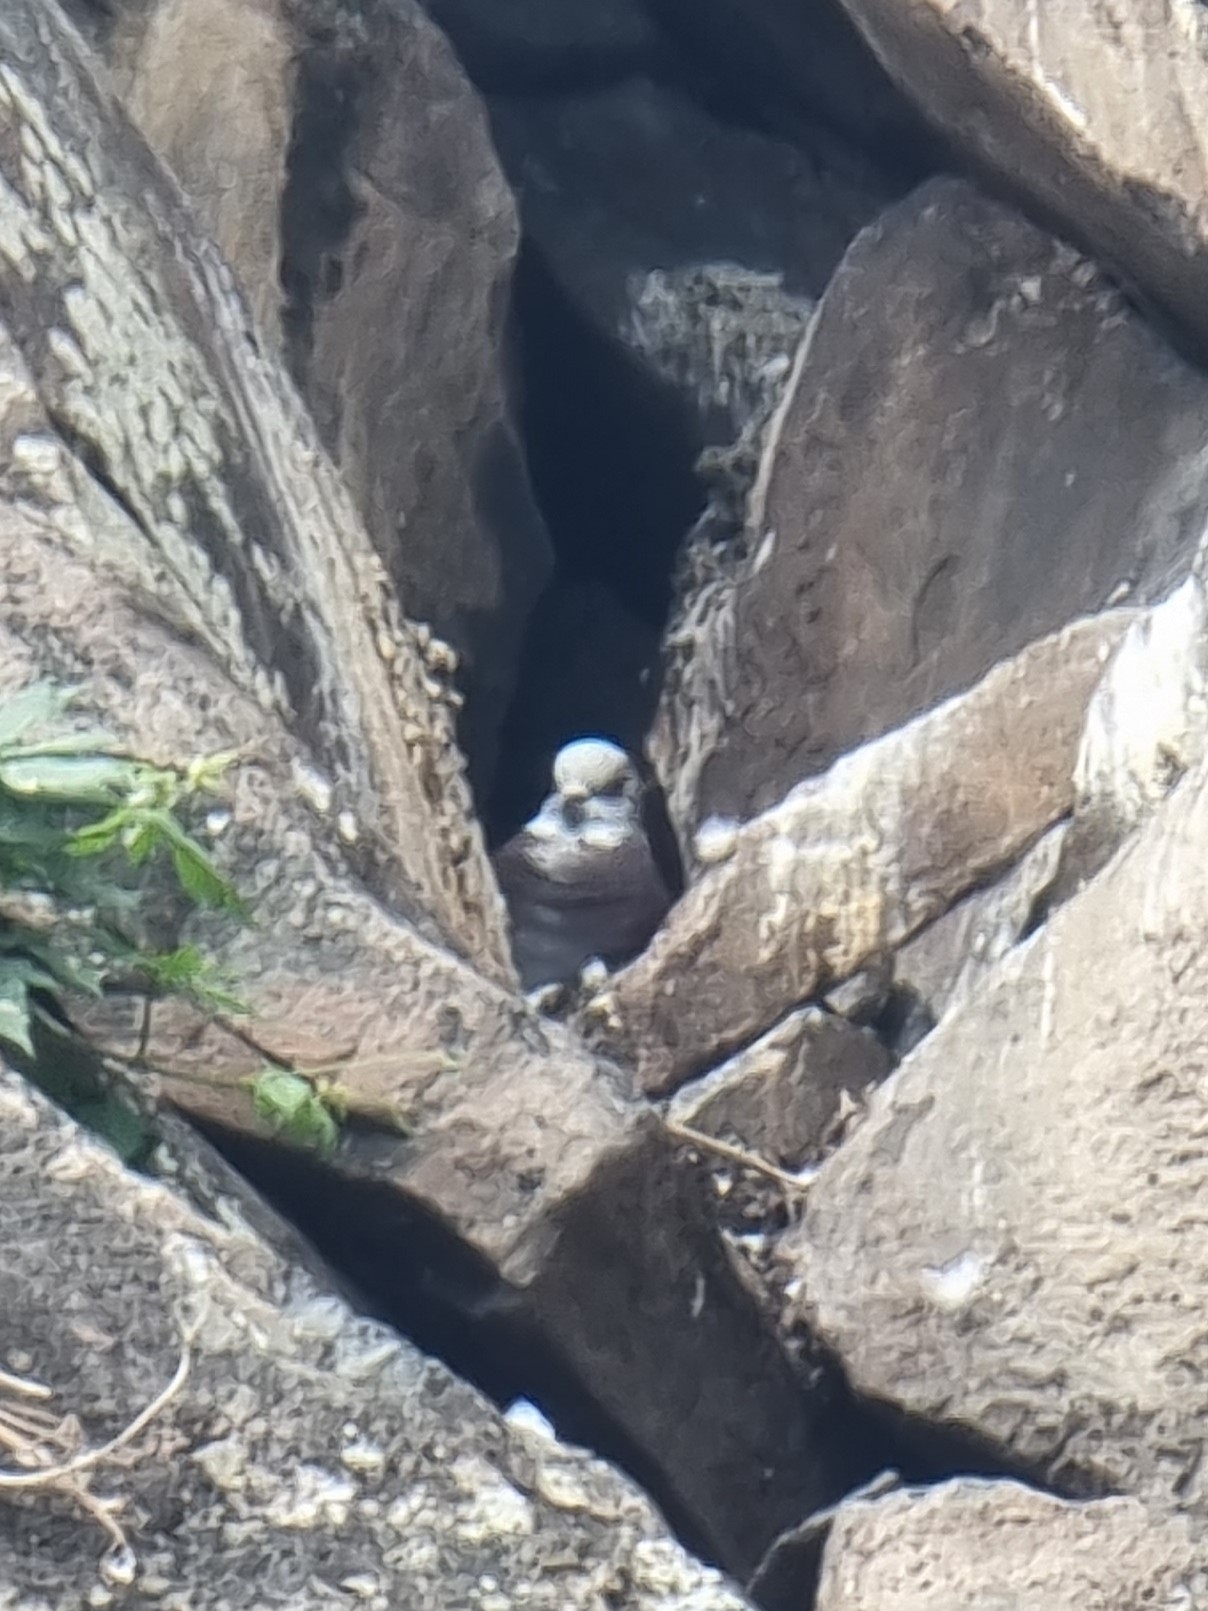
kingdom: Animalia
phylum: Chordata
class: Aves
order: Columbiformes
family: Columbidae
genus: Columba
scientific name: Columba livia
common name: Rock pigeon
